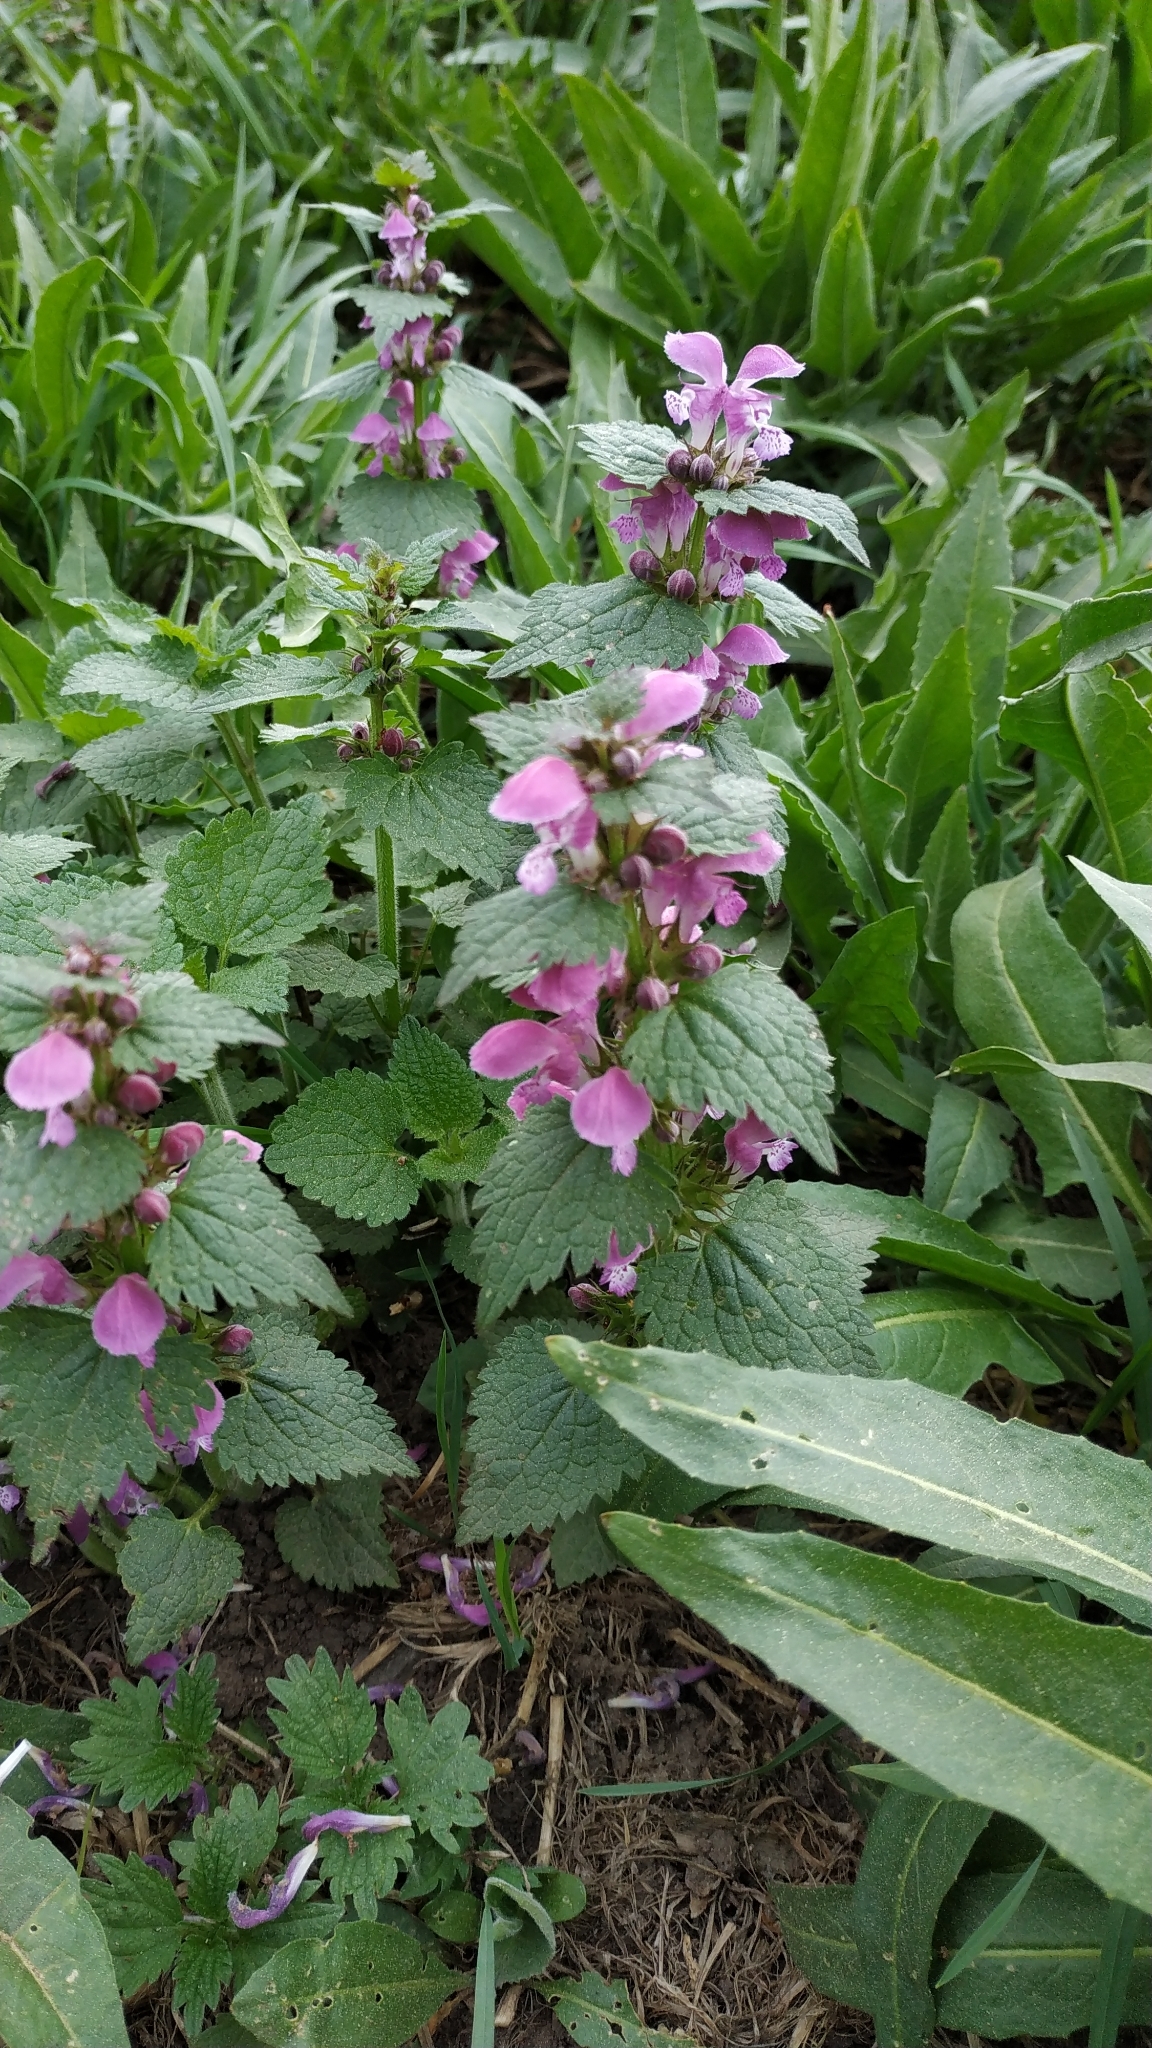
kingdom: Plantae
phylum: Tracheophyta
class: Magnoliopsida
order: Lamiales
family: Lamiaceae
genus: Lamium
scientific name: Lamium maculatum
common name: Spotted dead-nettle
